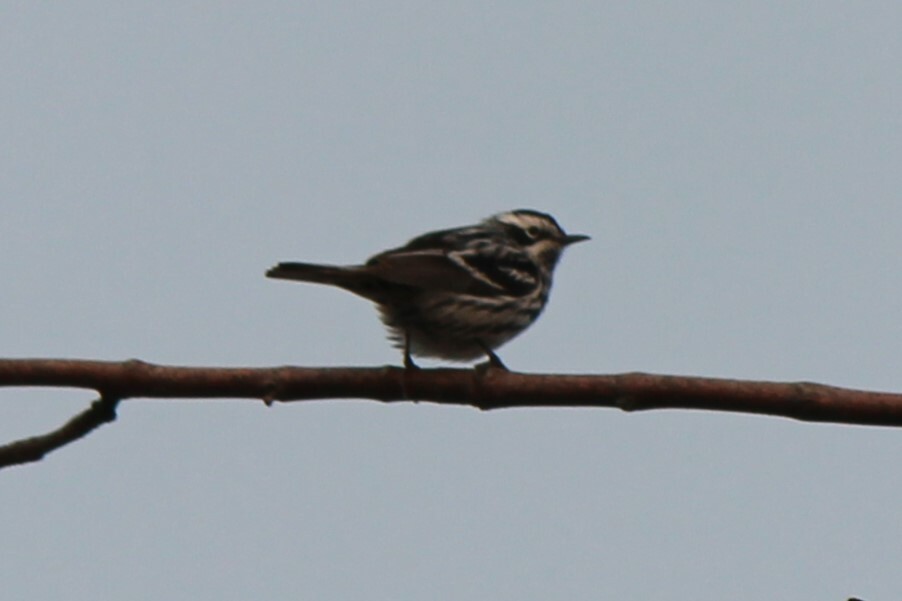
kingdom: Animalia
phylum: Chordata
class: Aves
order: Passeriformes
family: Parulidae
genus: Mniotilta
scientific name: Mniotilta varia
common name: Black-and-white warbler
